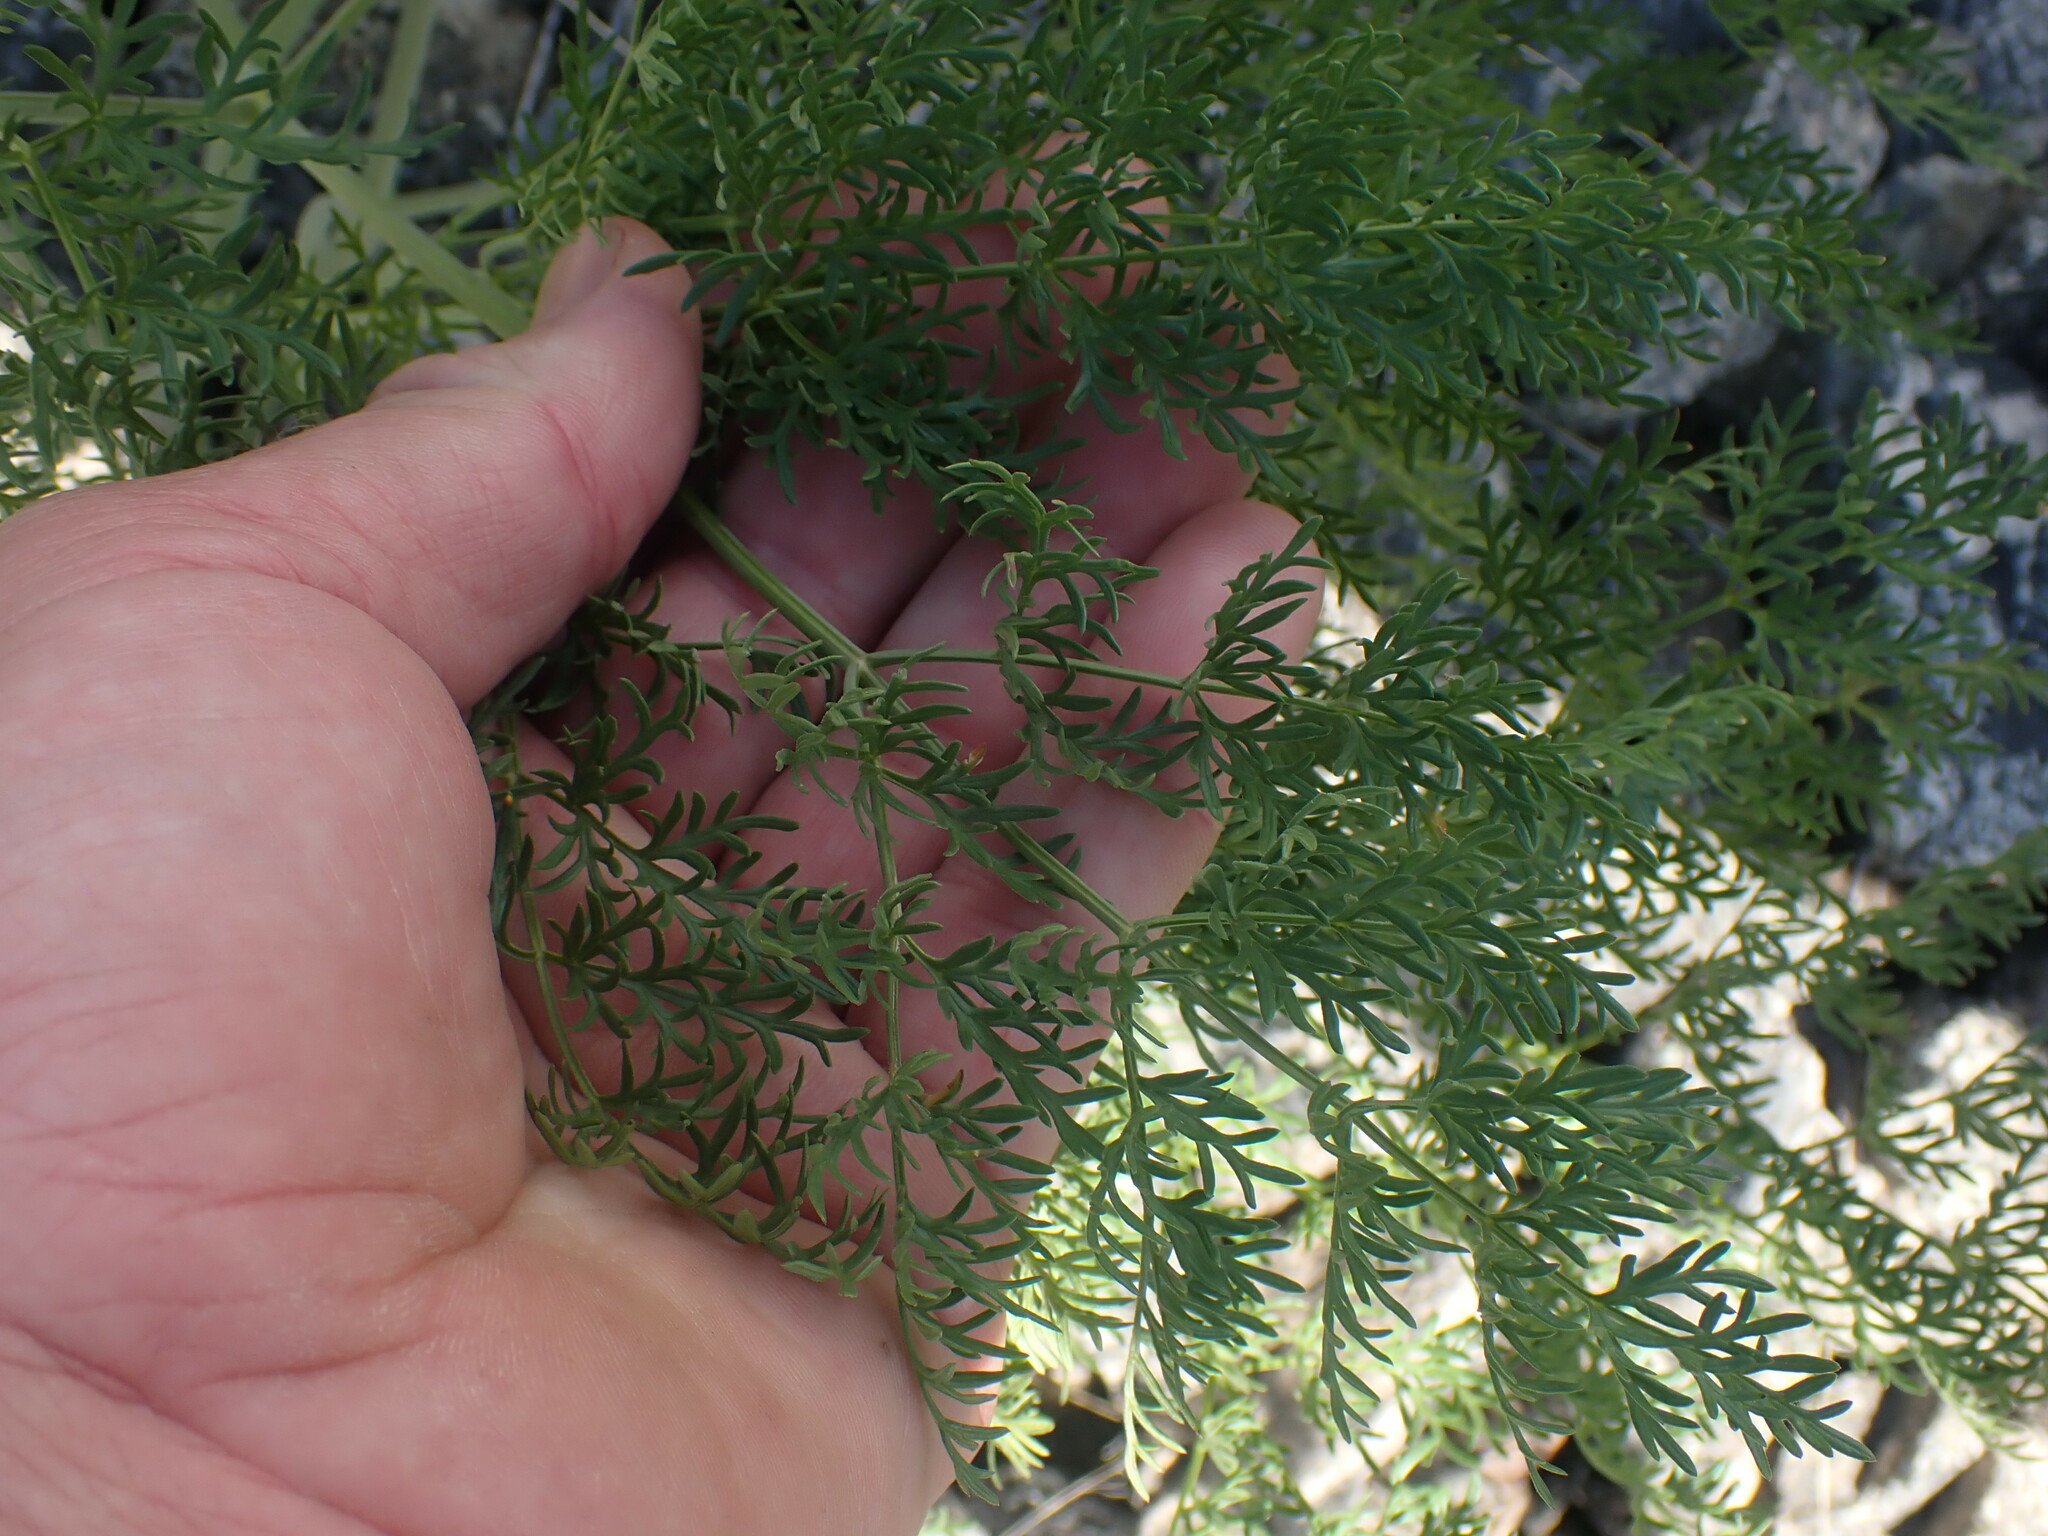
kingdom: Plantae
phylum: Tracheophyta
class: Magnoliopsida
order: Apiales
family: Apiaceae
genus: Lomatium
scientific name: Lomatium multifidum
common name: Carrot-leaved biscuitroot
